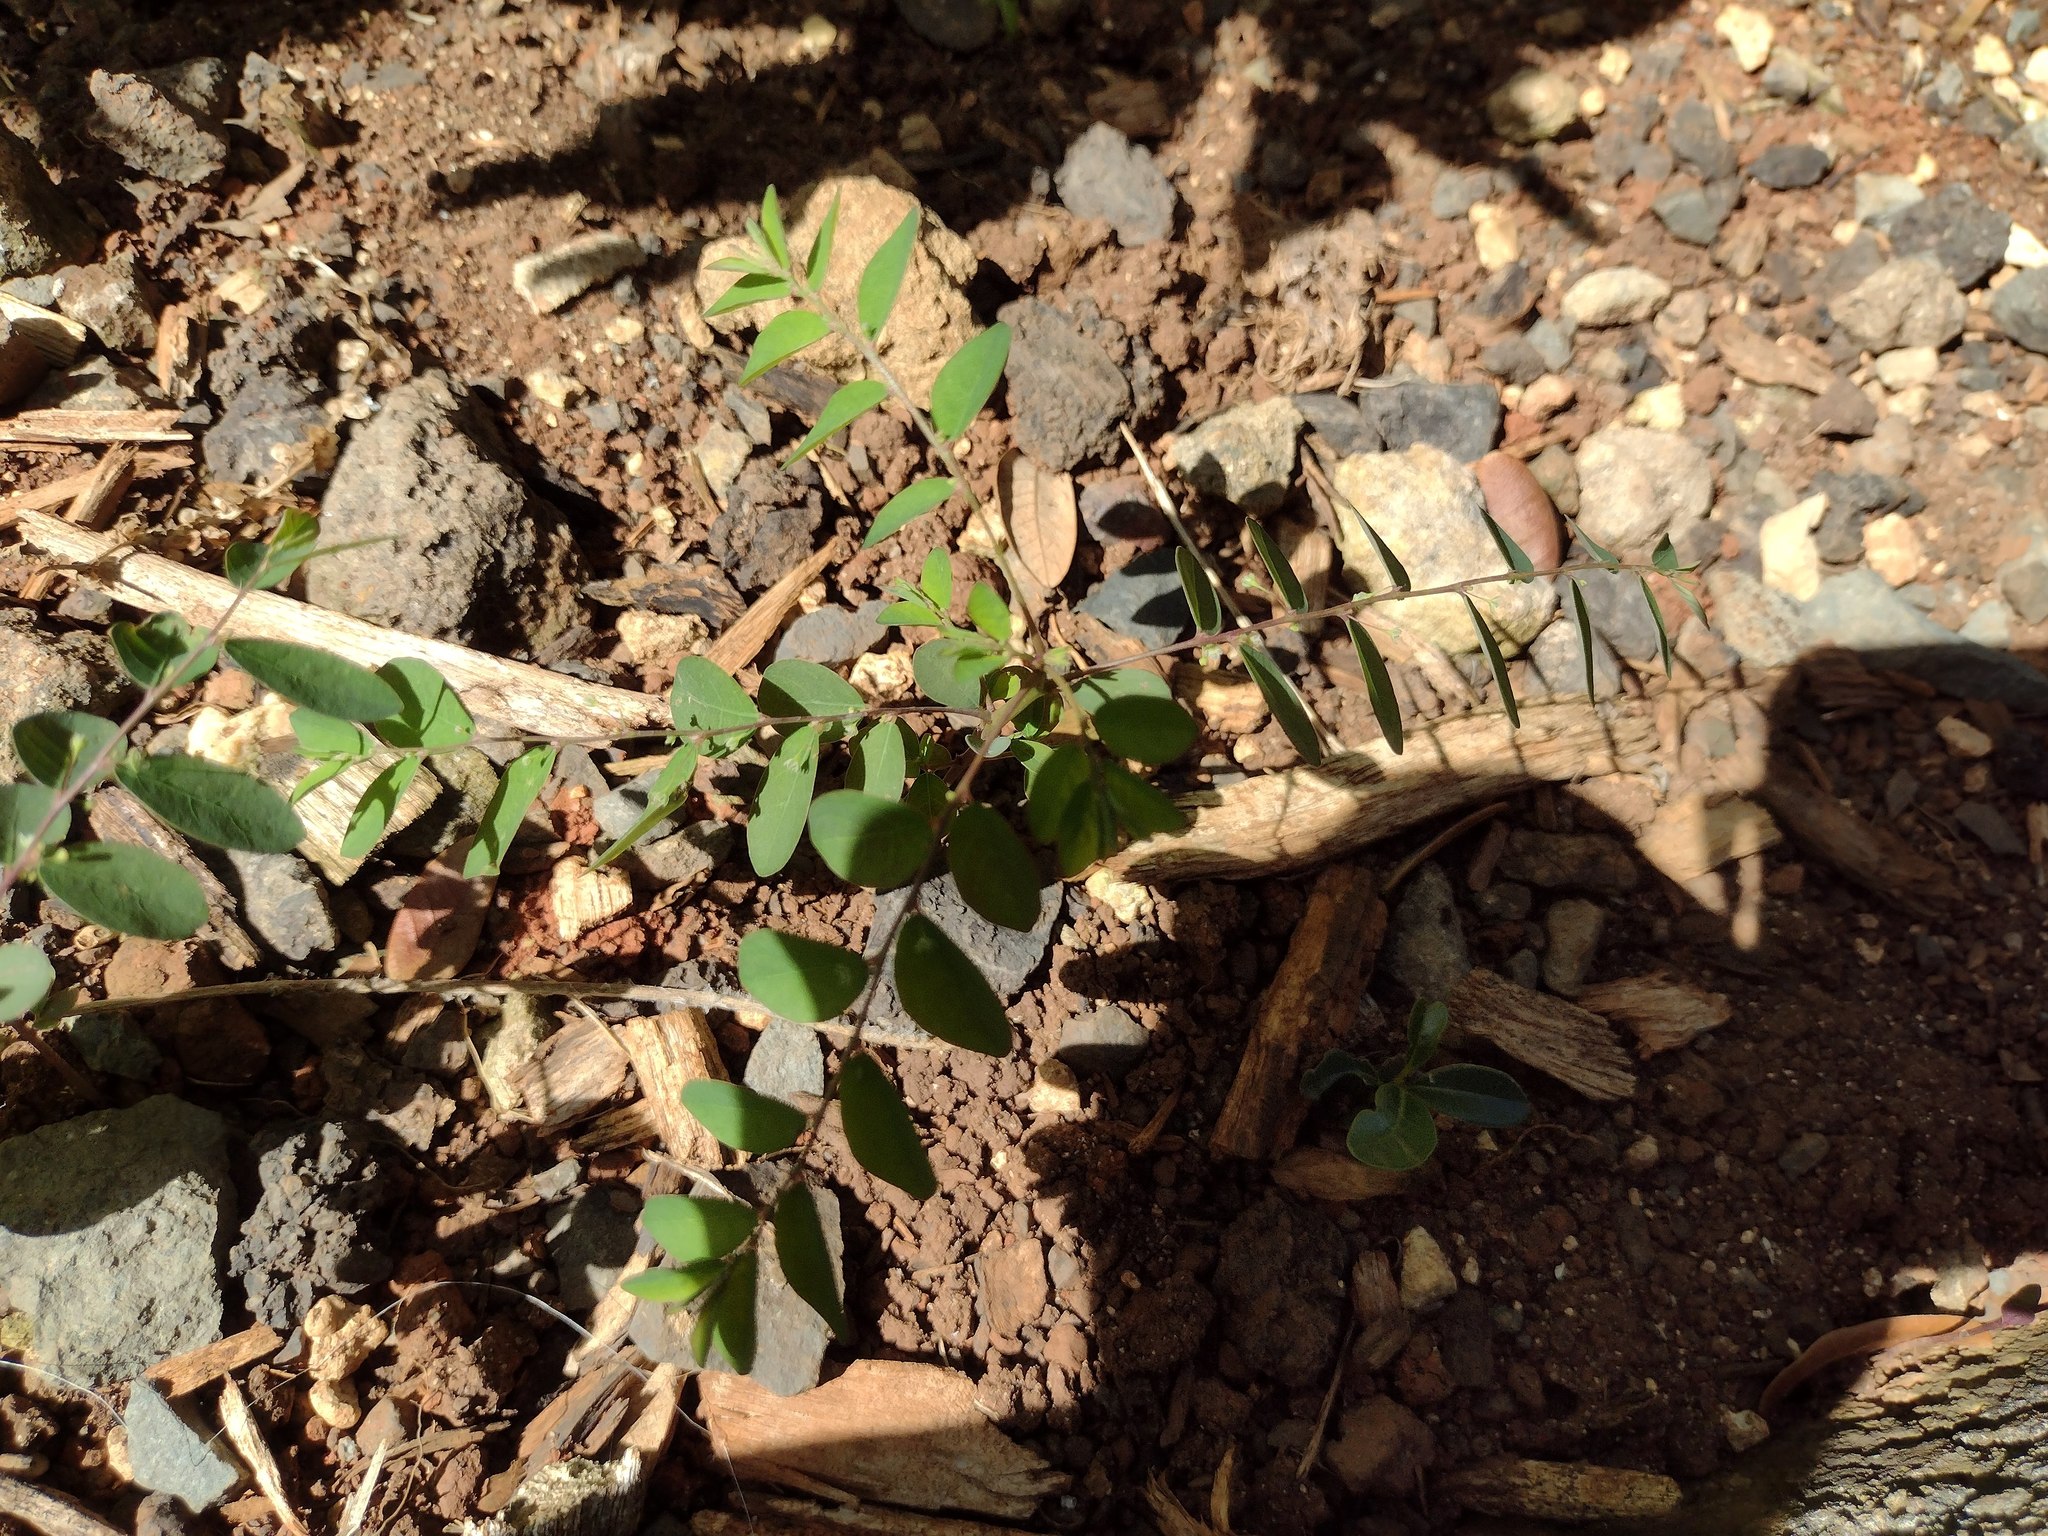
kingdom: Plantae
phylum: Tracheophyta
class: Magnoliopsida
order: Malpighiales
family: Phyllanthaceae
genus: Phyllanthus
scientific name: Phyllanthus tenellus
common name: Mascarene island leaf-flower
